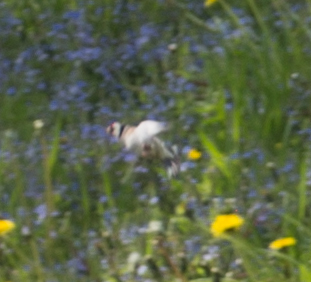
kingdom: Animalia
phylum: Chordata
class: Aves
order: Passeriformes
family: Fringillidae
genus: Carduelis
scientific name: Carduelis carduelis
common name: European goldfinch
